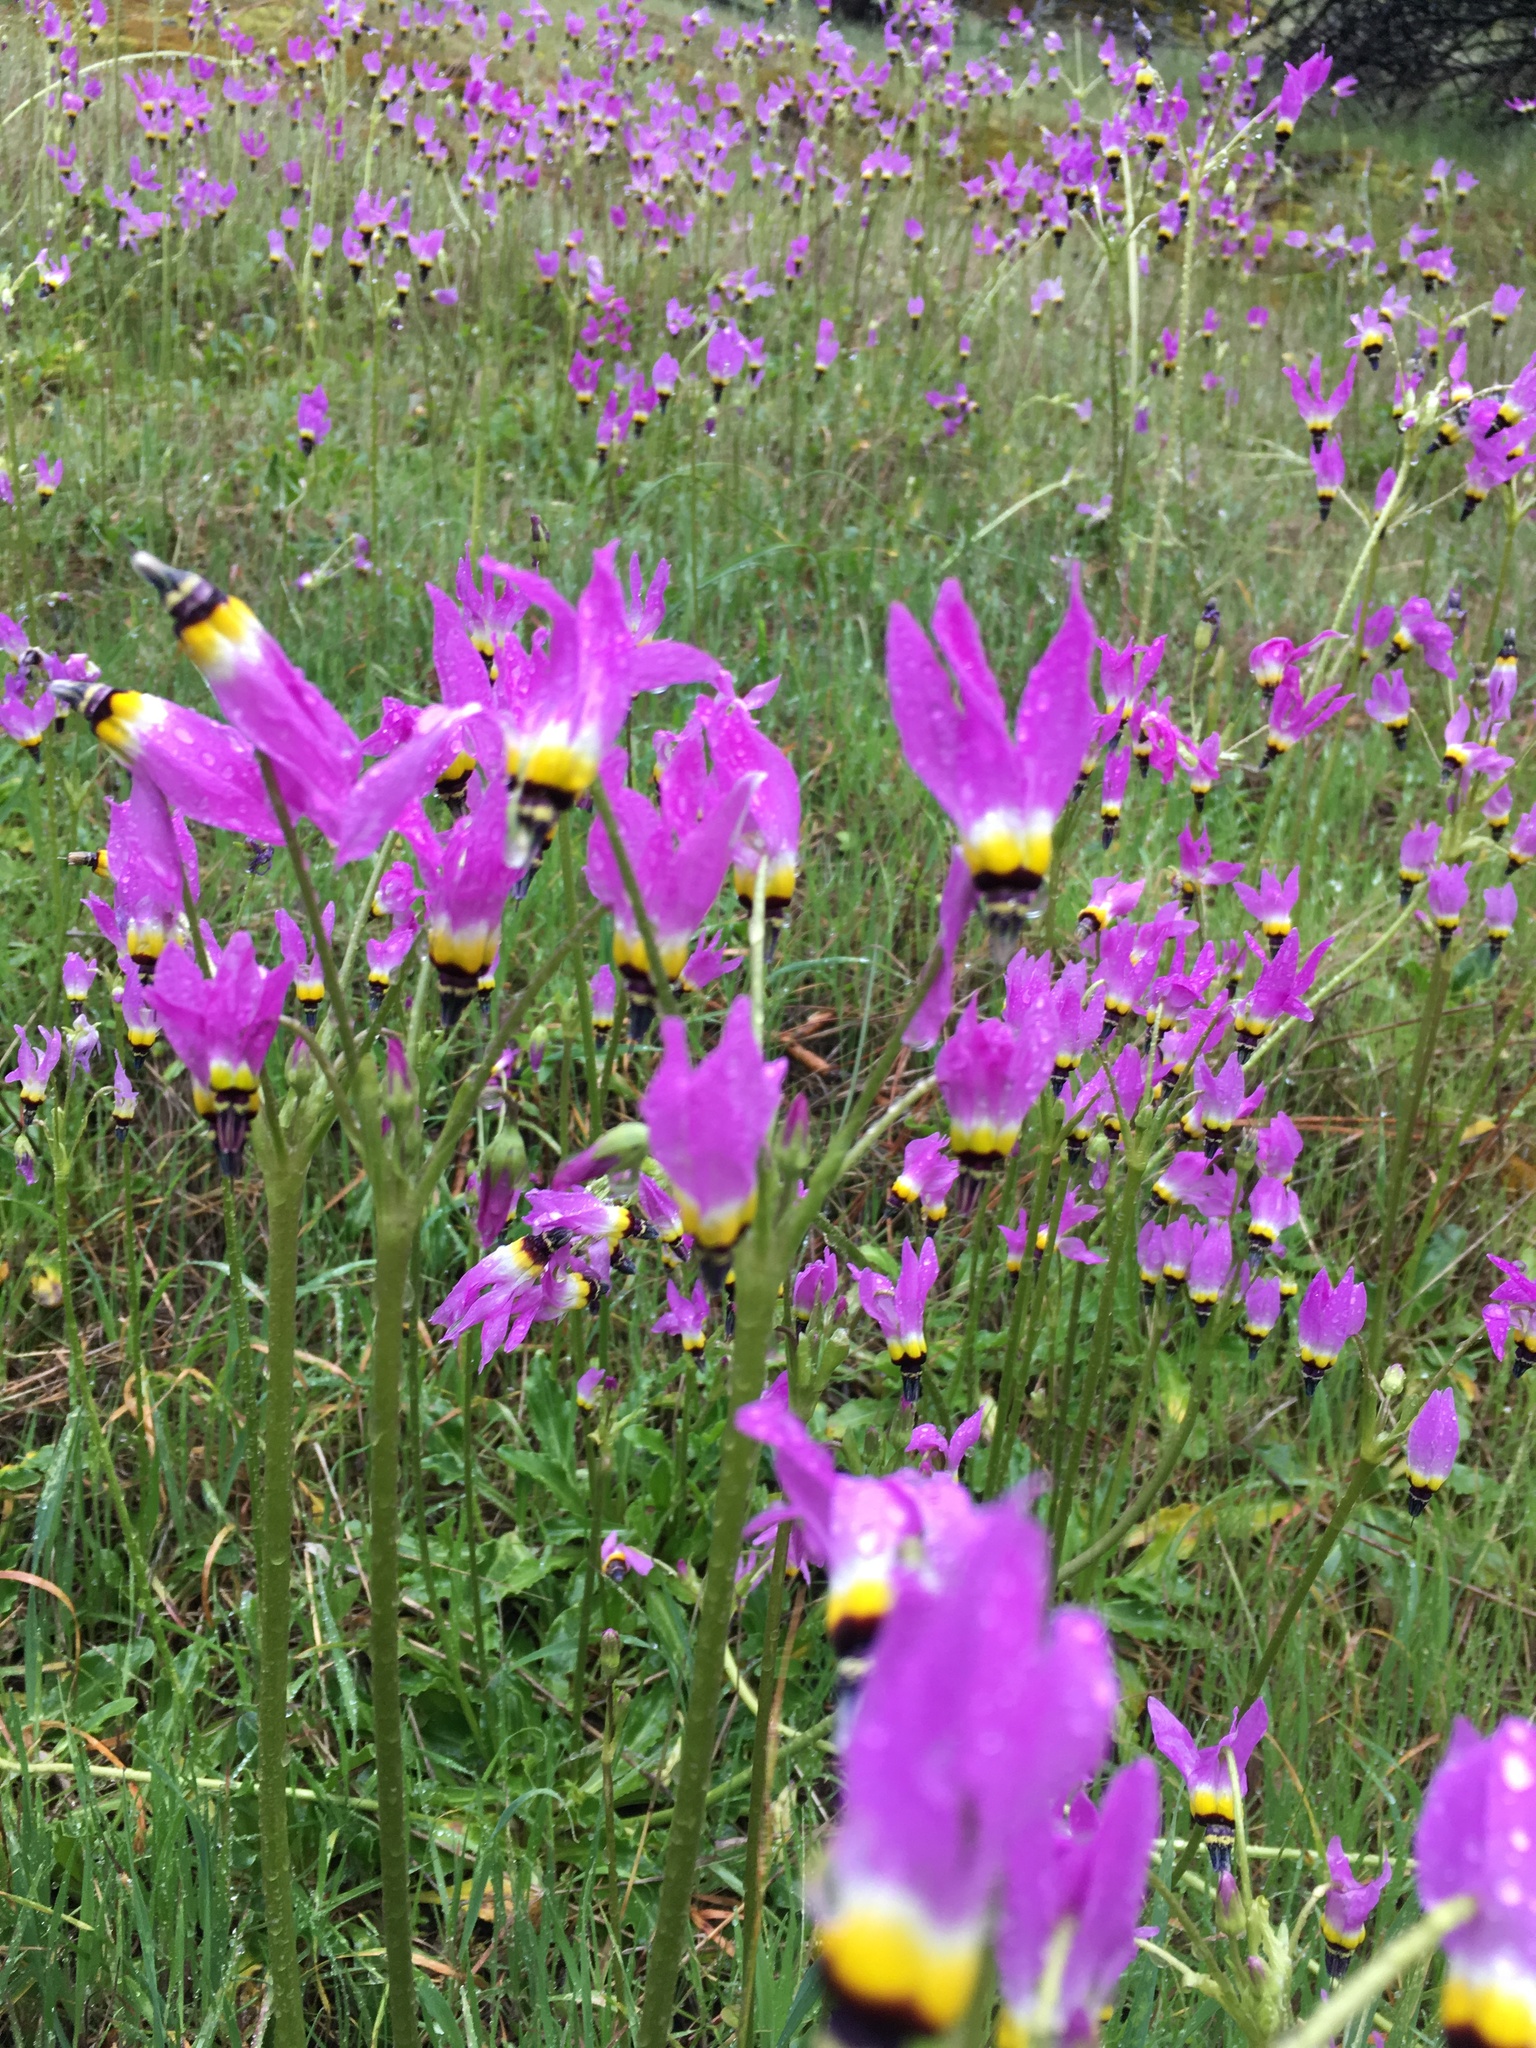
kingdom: Plantae
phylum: Tracheophyta
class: Magnoliopsida
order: Ericales
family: Primulaceae
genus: Dodecatheon
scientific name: Dodecatheon clevelandii
